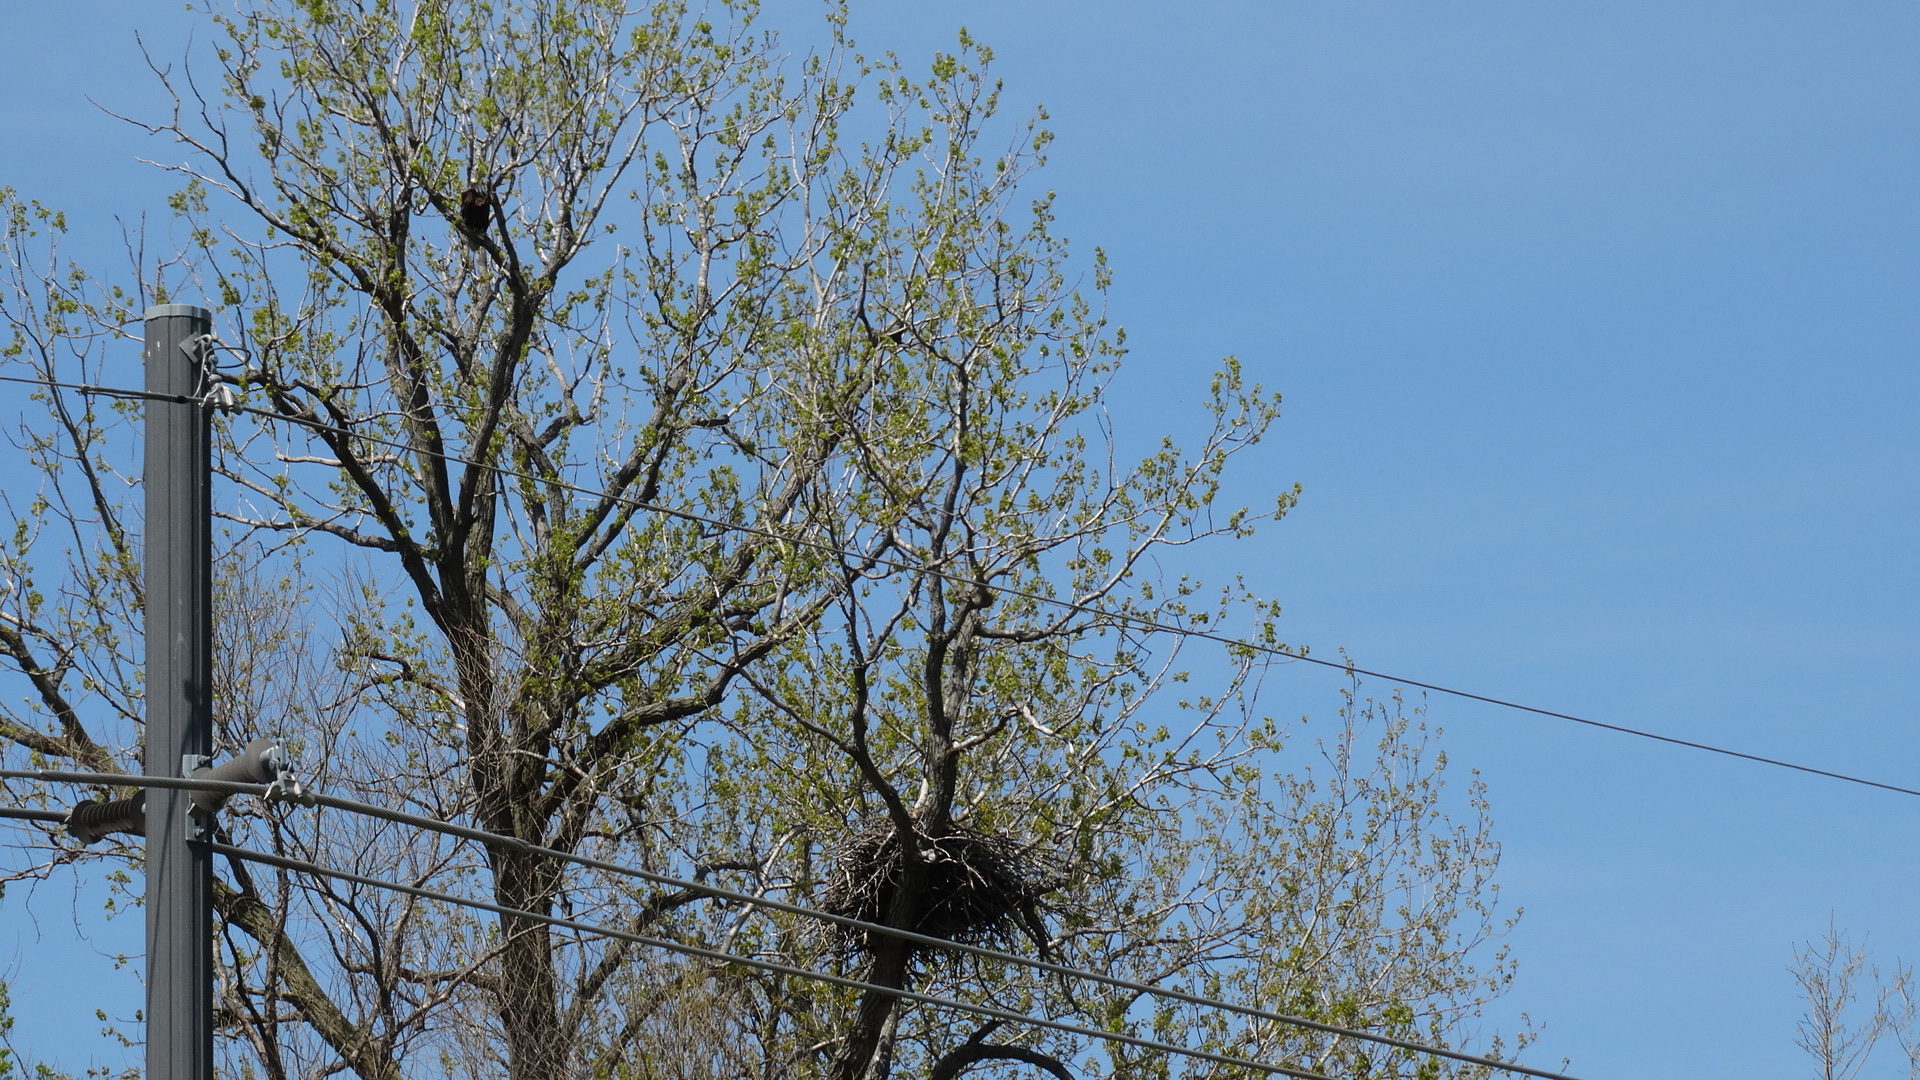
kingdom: Animalia
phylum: Chordata
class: Aves
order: Accipitriformes
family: Accipitridae
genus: Haliaeetus
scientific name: Haliaeetus leucocephalus
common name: Bald eagle
